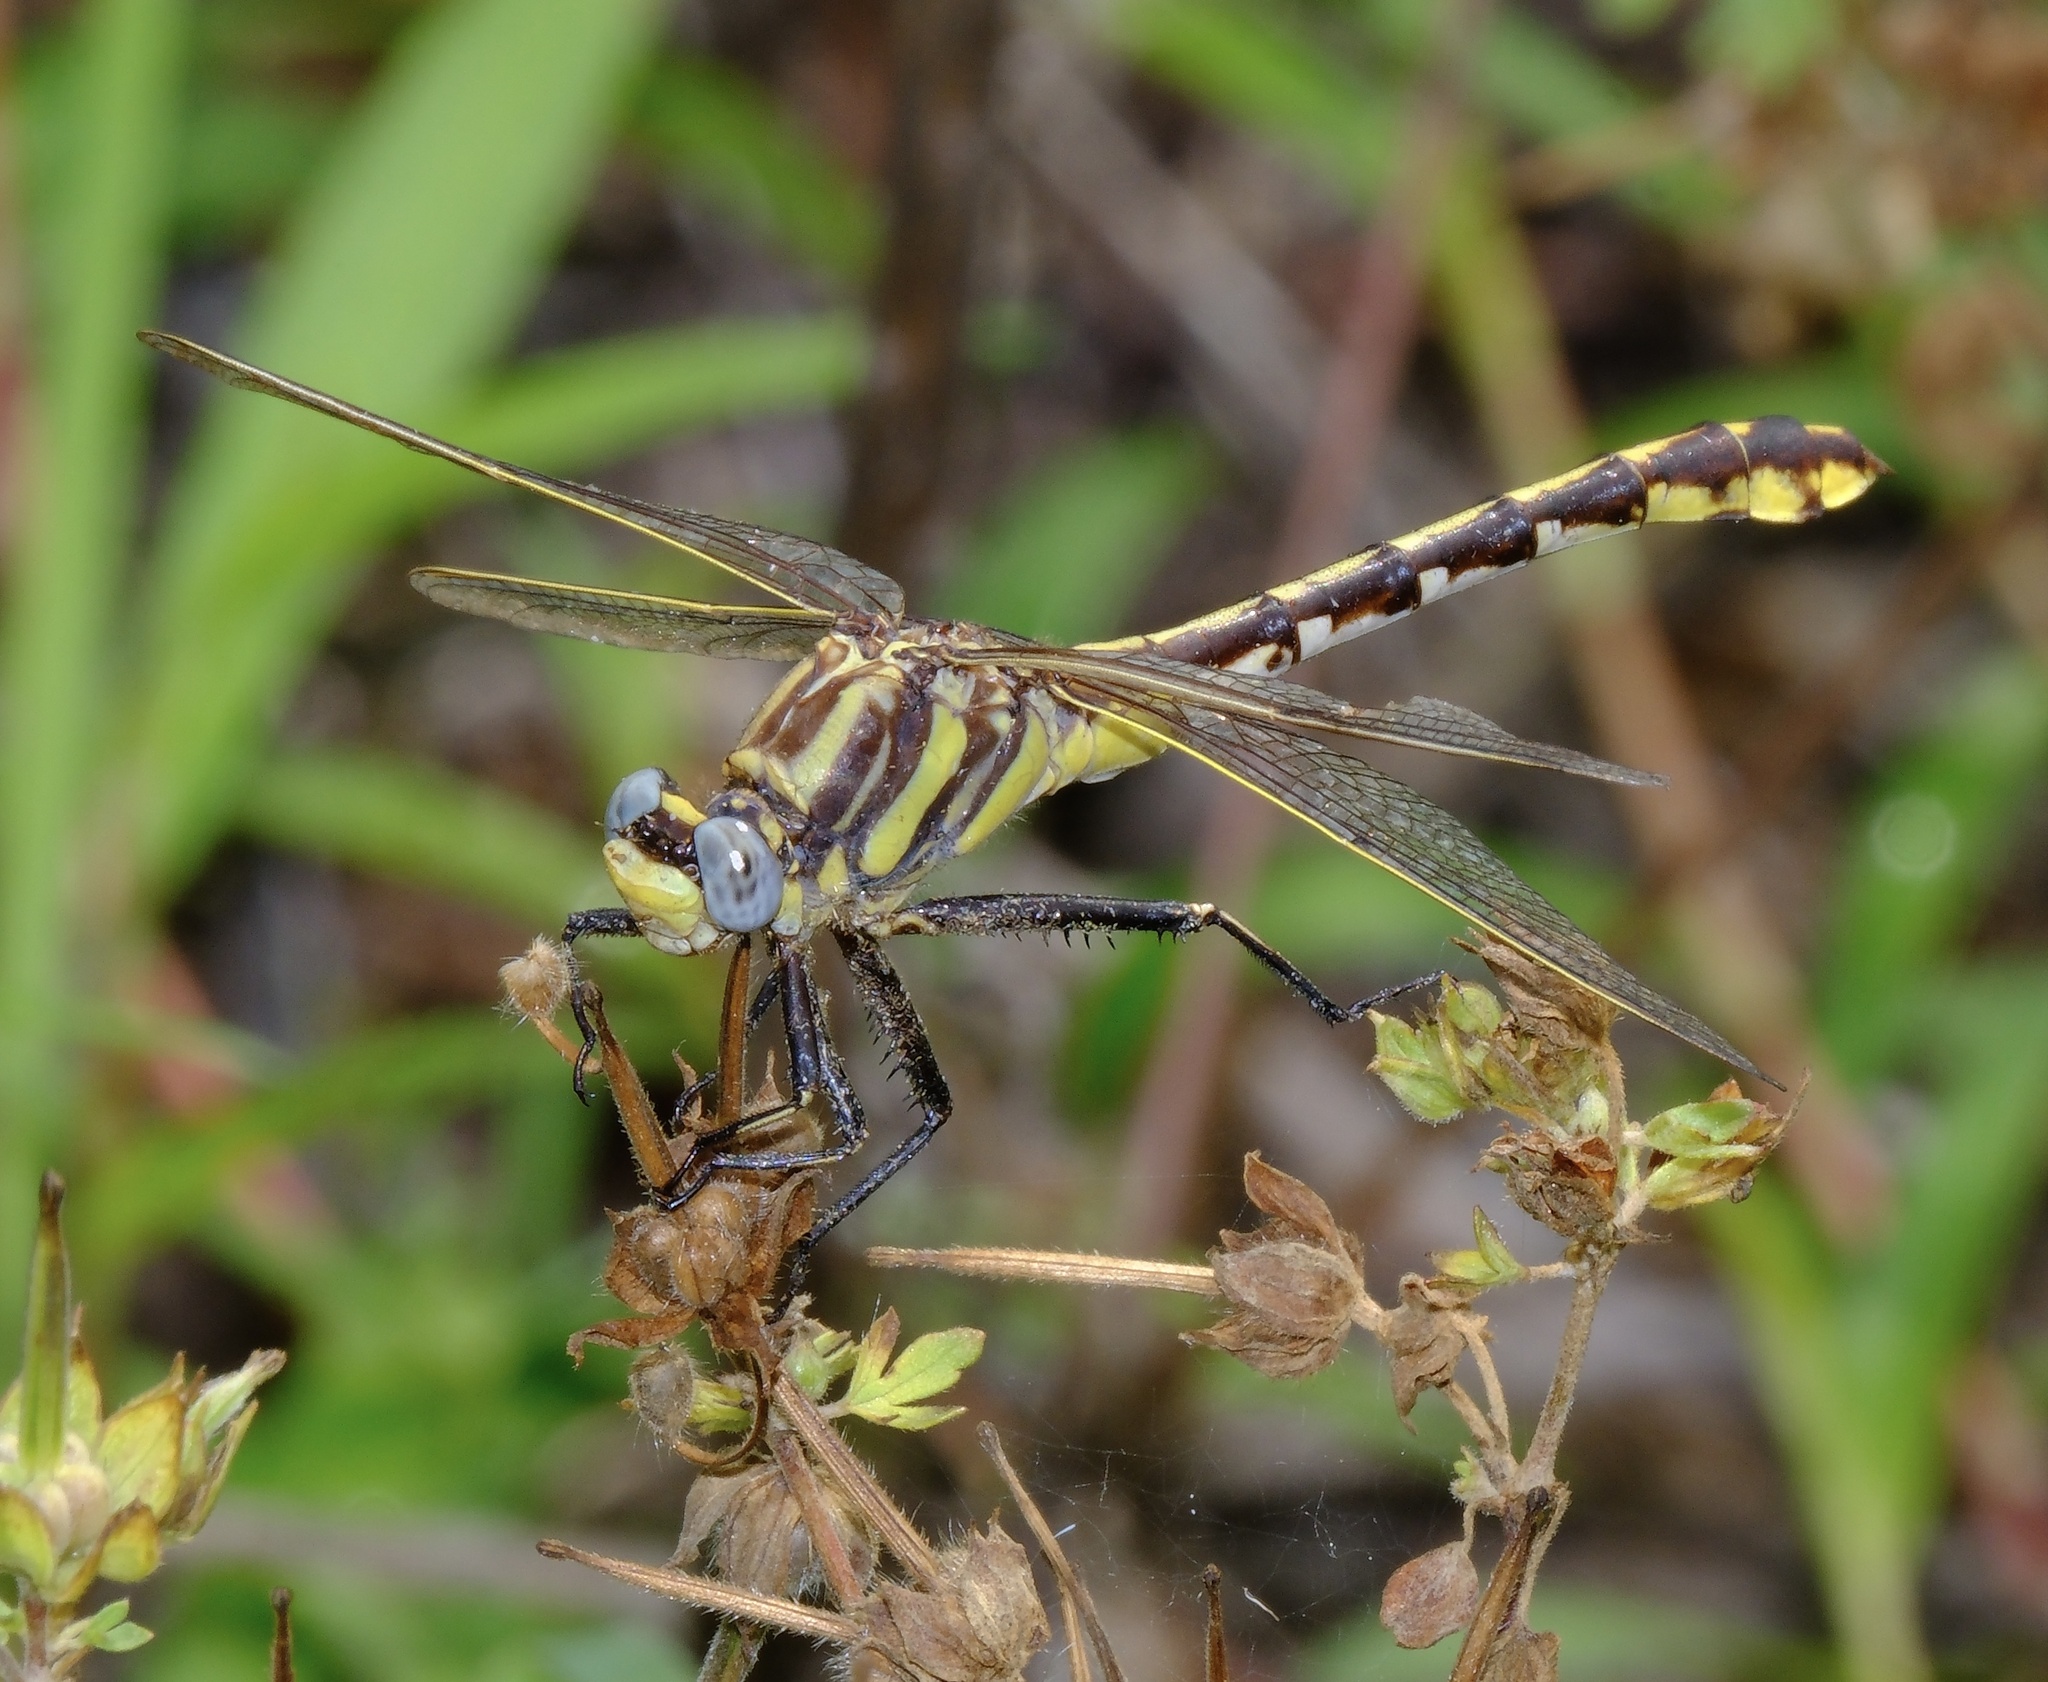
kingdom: Animalia
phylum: Arthropoda
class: Insecta
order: Odonata
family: Gomphidae
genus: Gomphurus
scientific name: Gomphurus externus
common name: Plains clubtail
